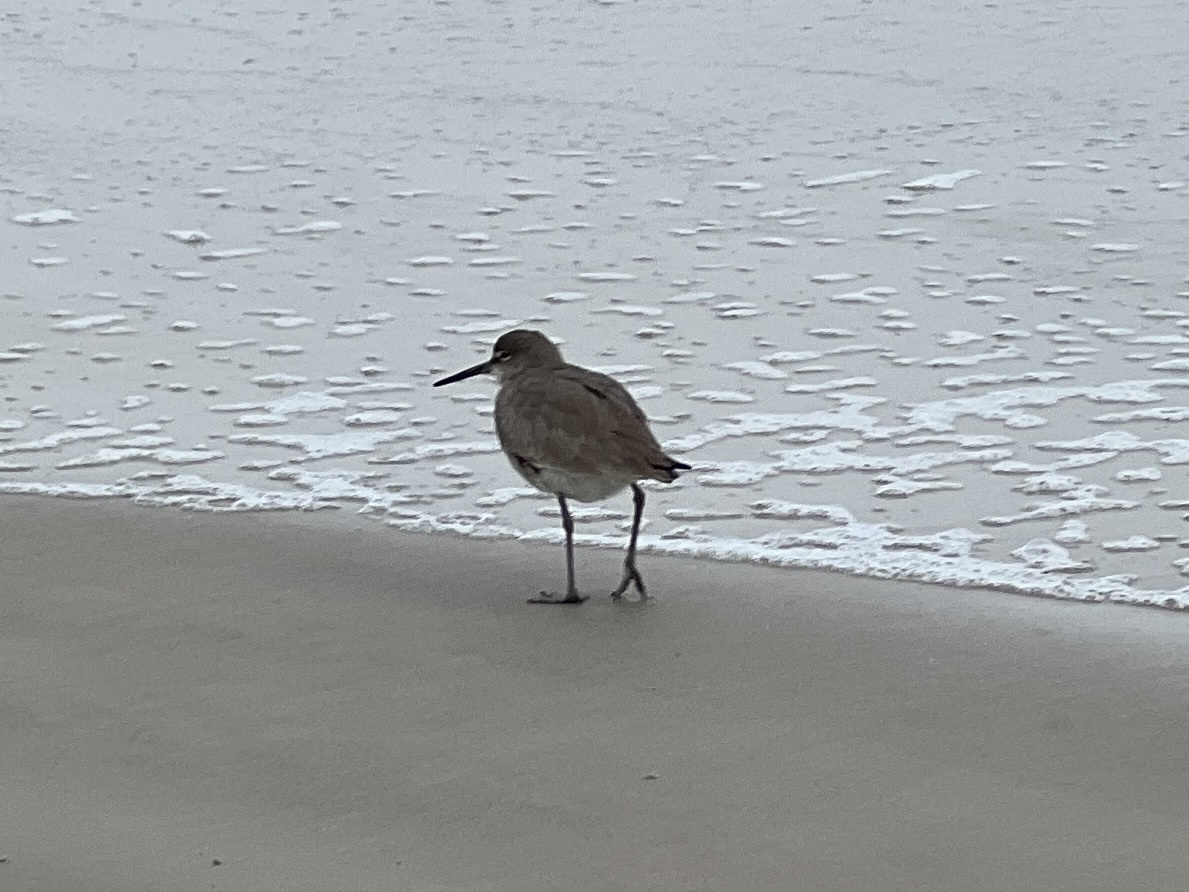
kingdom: Animalia
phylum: Chordata
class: Aves
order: Charadriiformes
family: Scolopacidae
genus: Tringa
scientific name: Tringa semipalmata
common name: Willet
